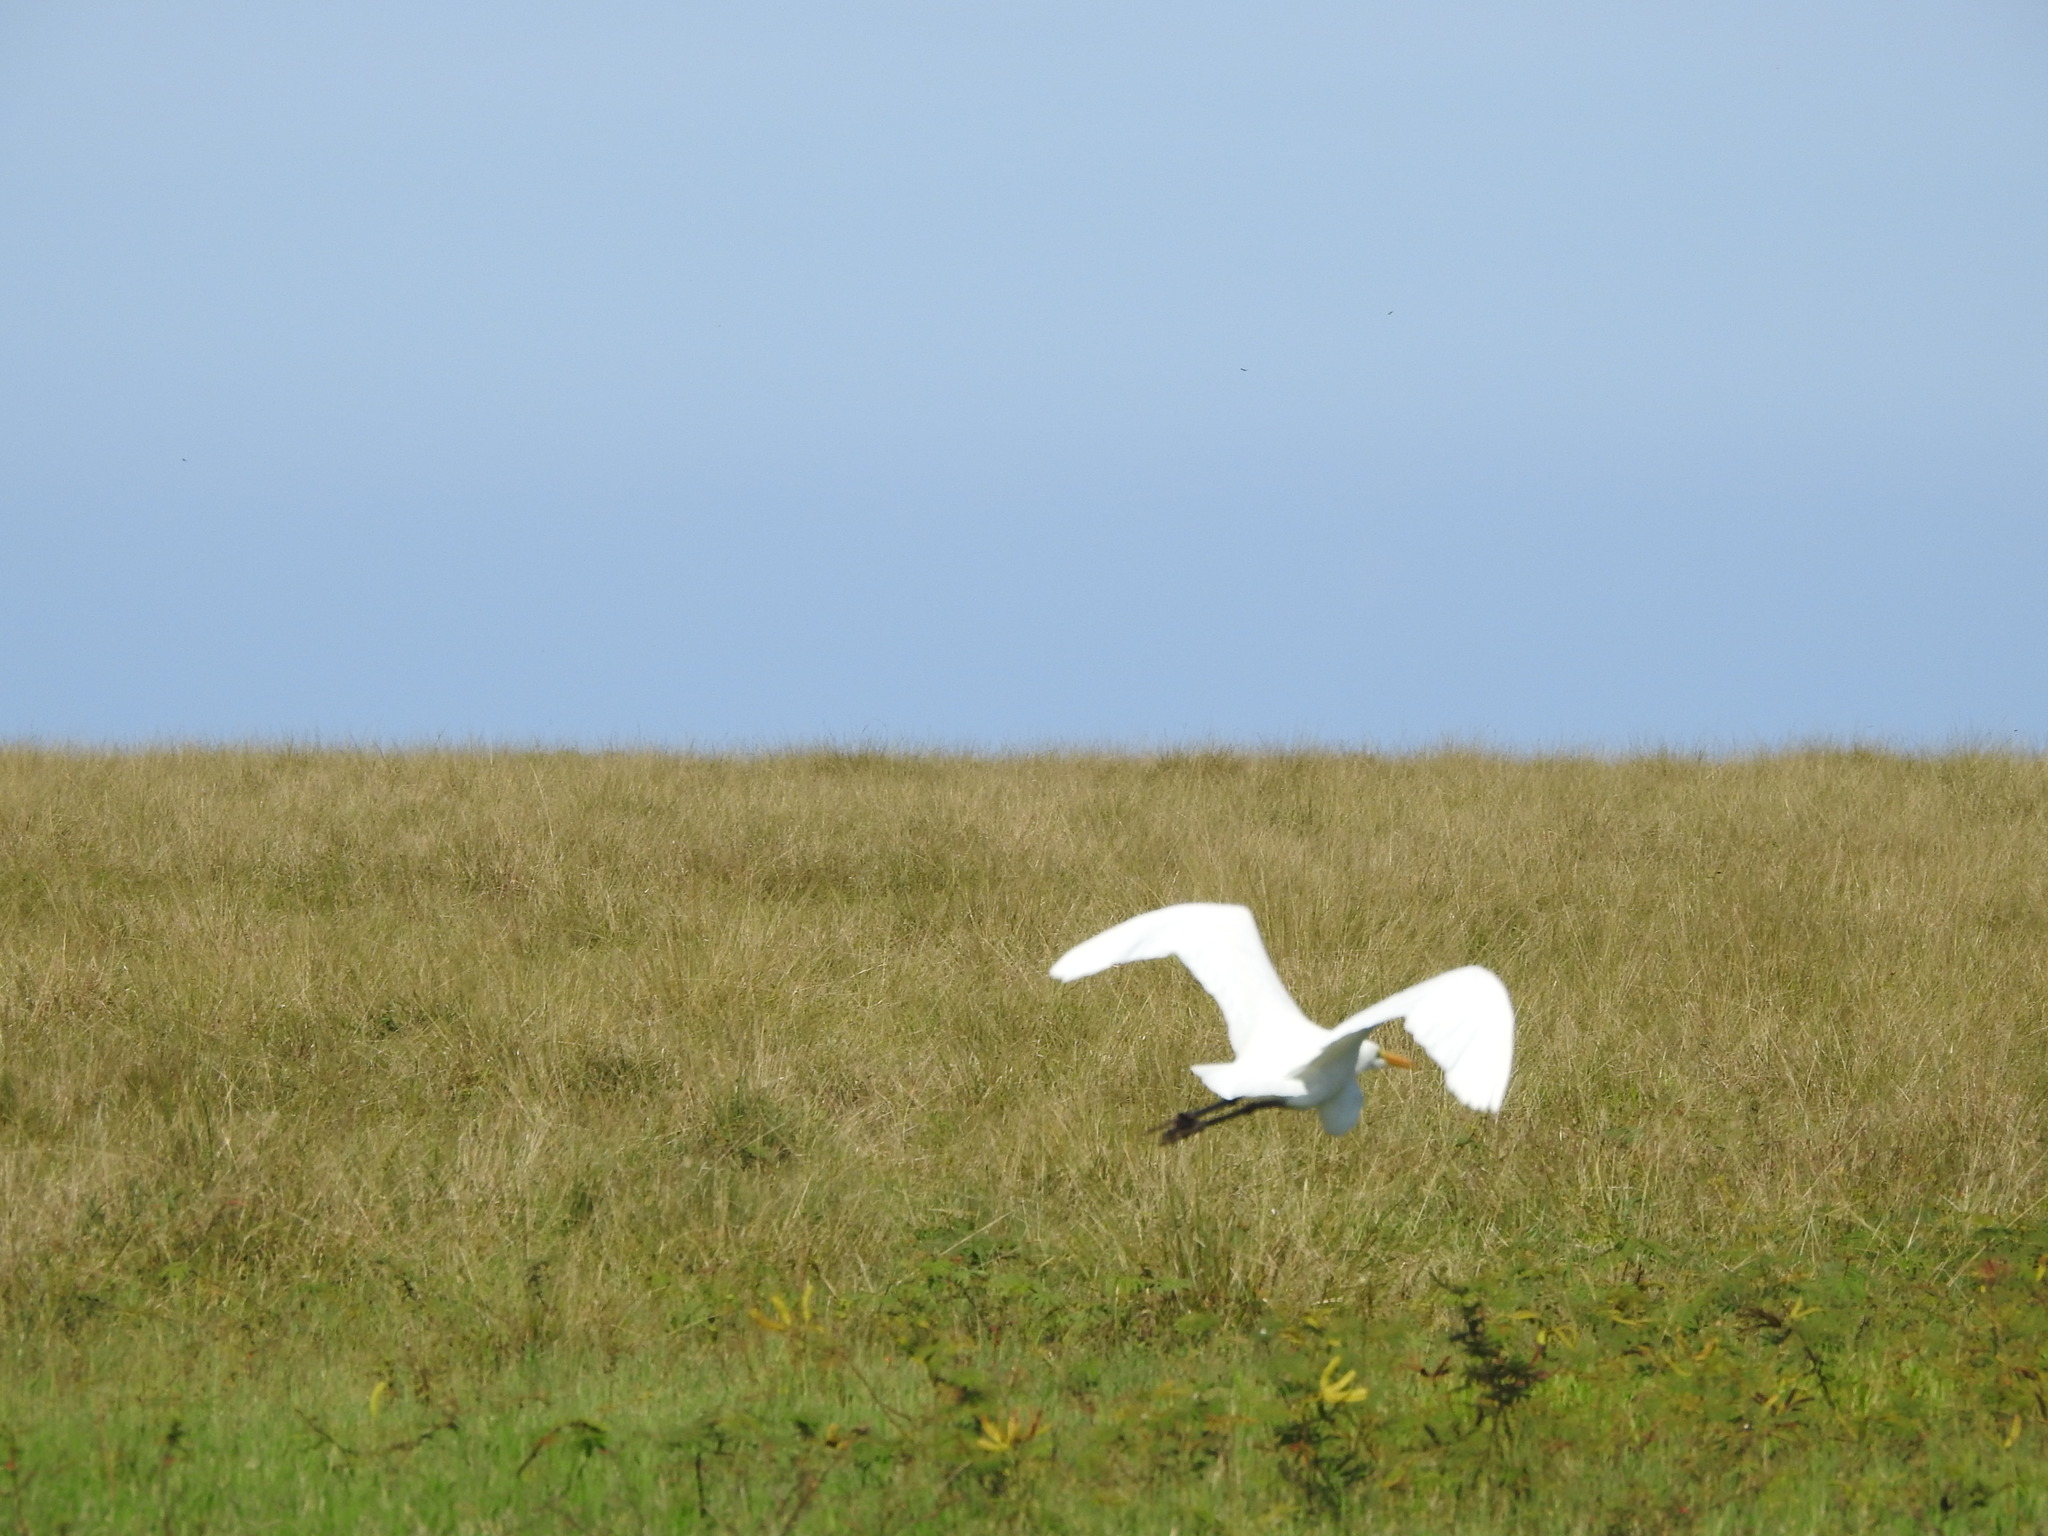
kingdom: Animalia
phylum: Chordata
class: Aves
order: Pelecaniformes
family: Ardeidae
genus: Ardea
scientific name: Ardea alba
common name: Great egret
